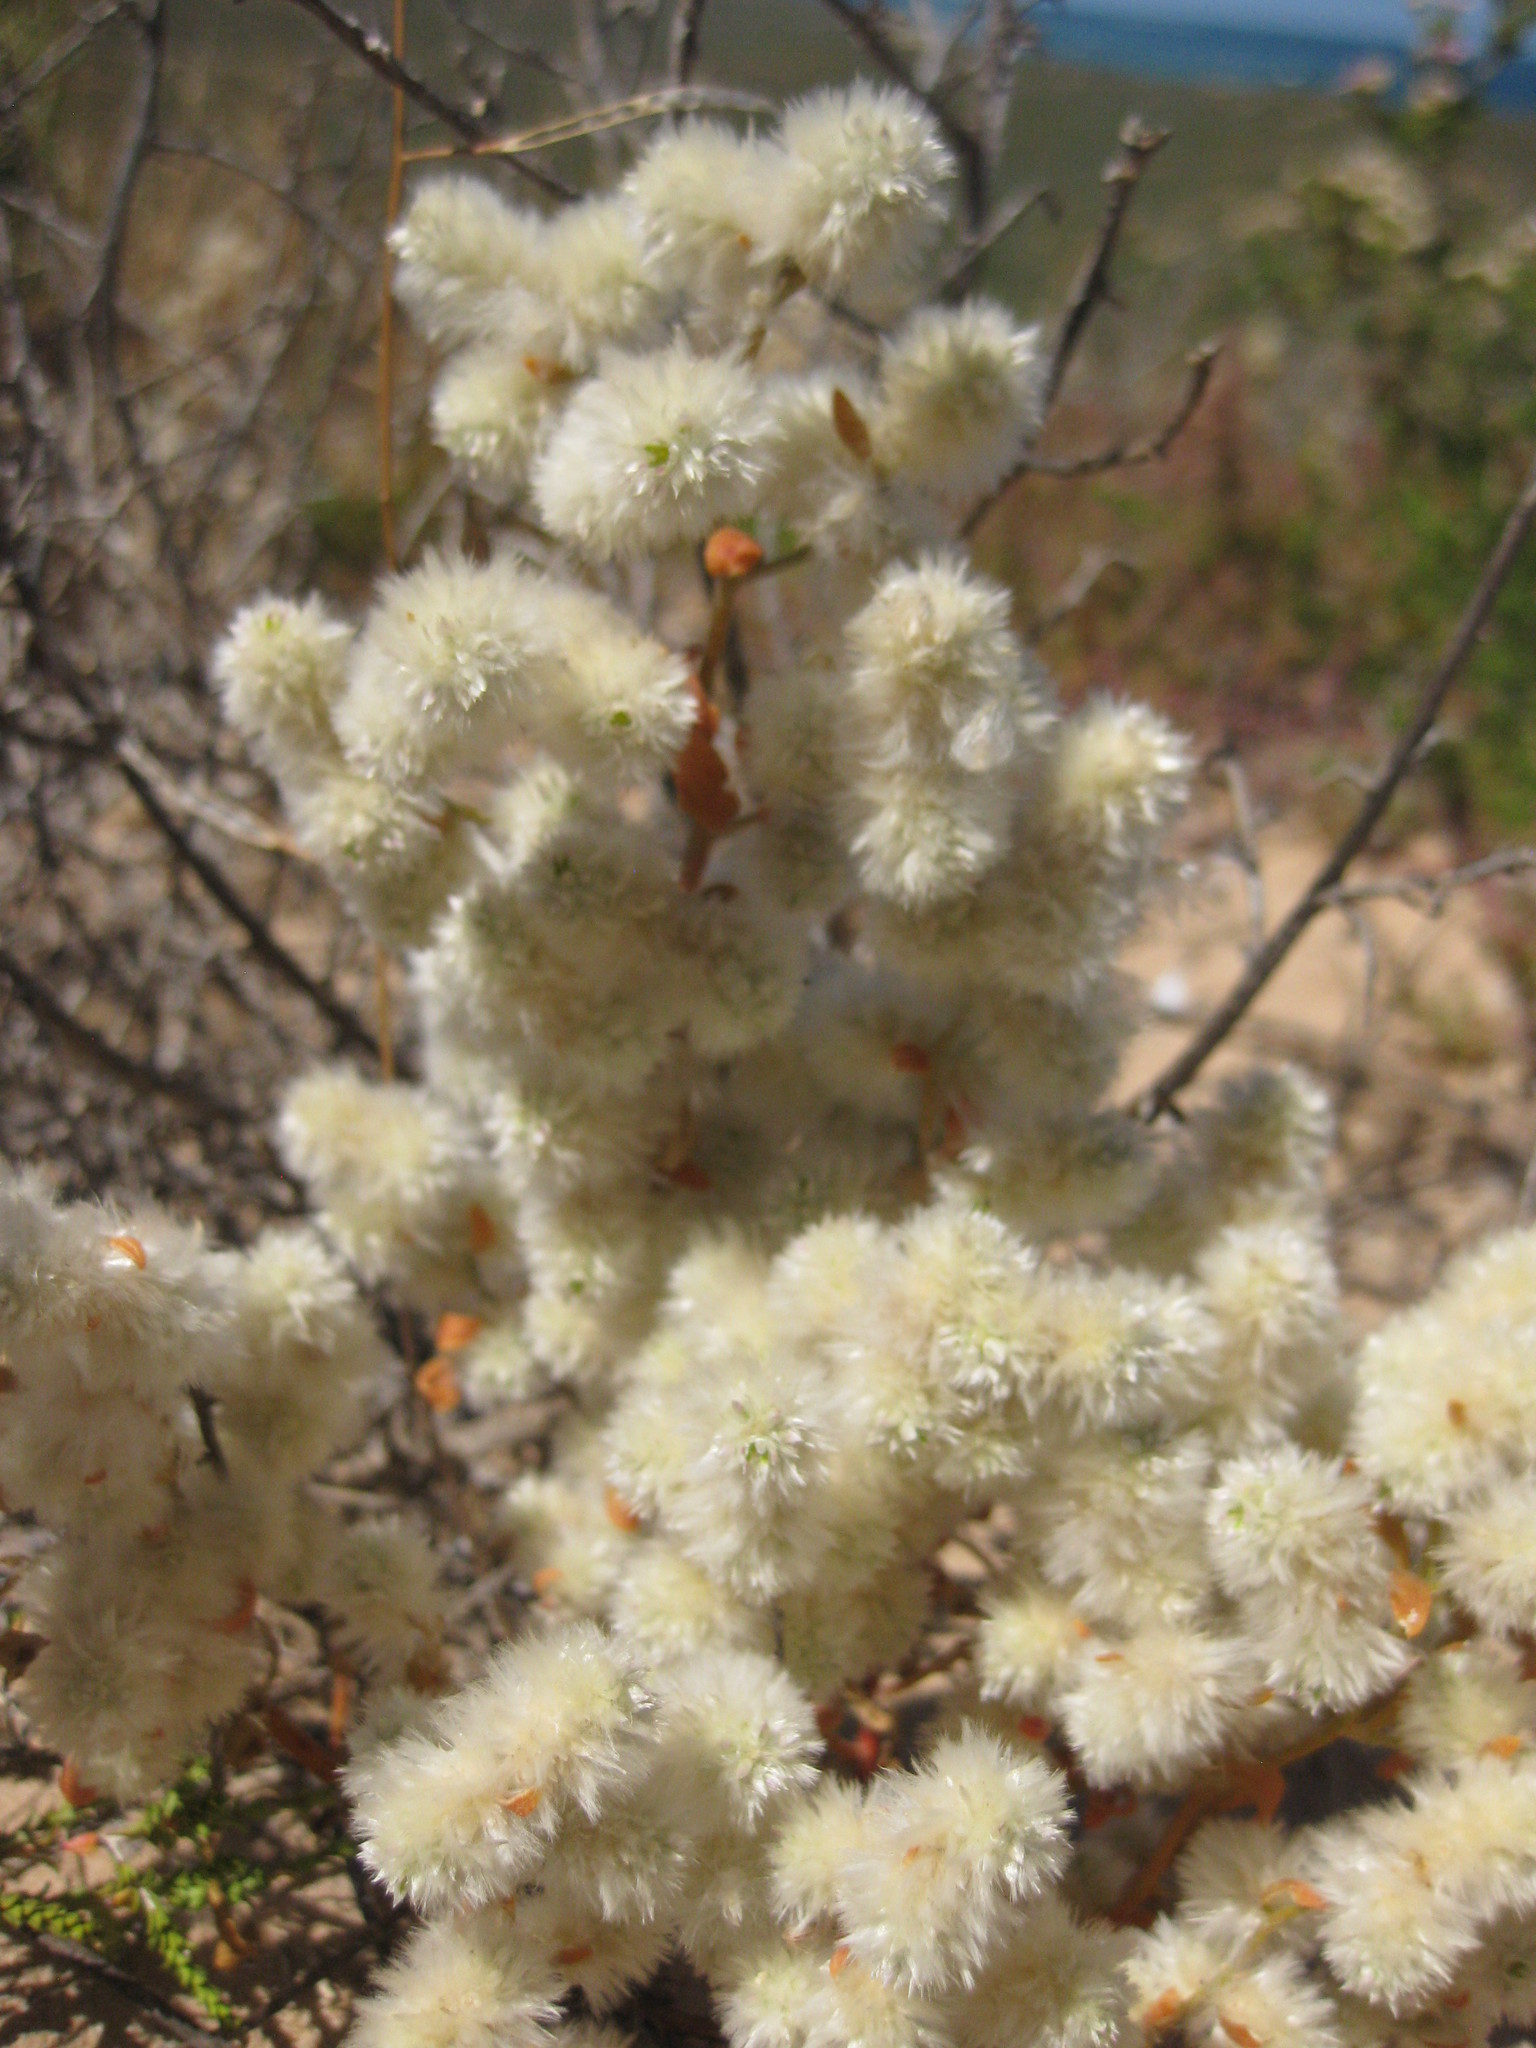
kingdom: Plantae
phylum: Tracheophyta
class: Magnoliopsida
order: Caryophyllales
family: Amaranthaceae
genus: Ptilotus
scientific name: Ptilotus villosiflorus
